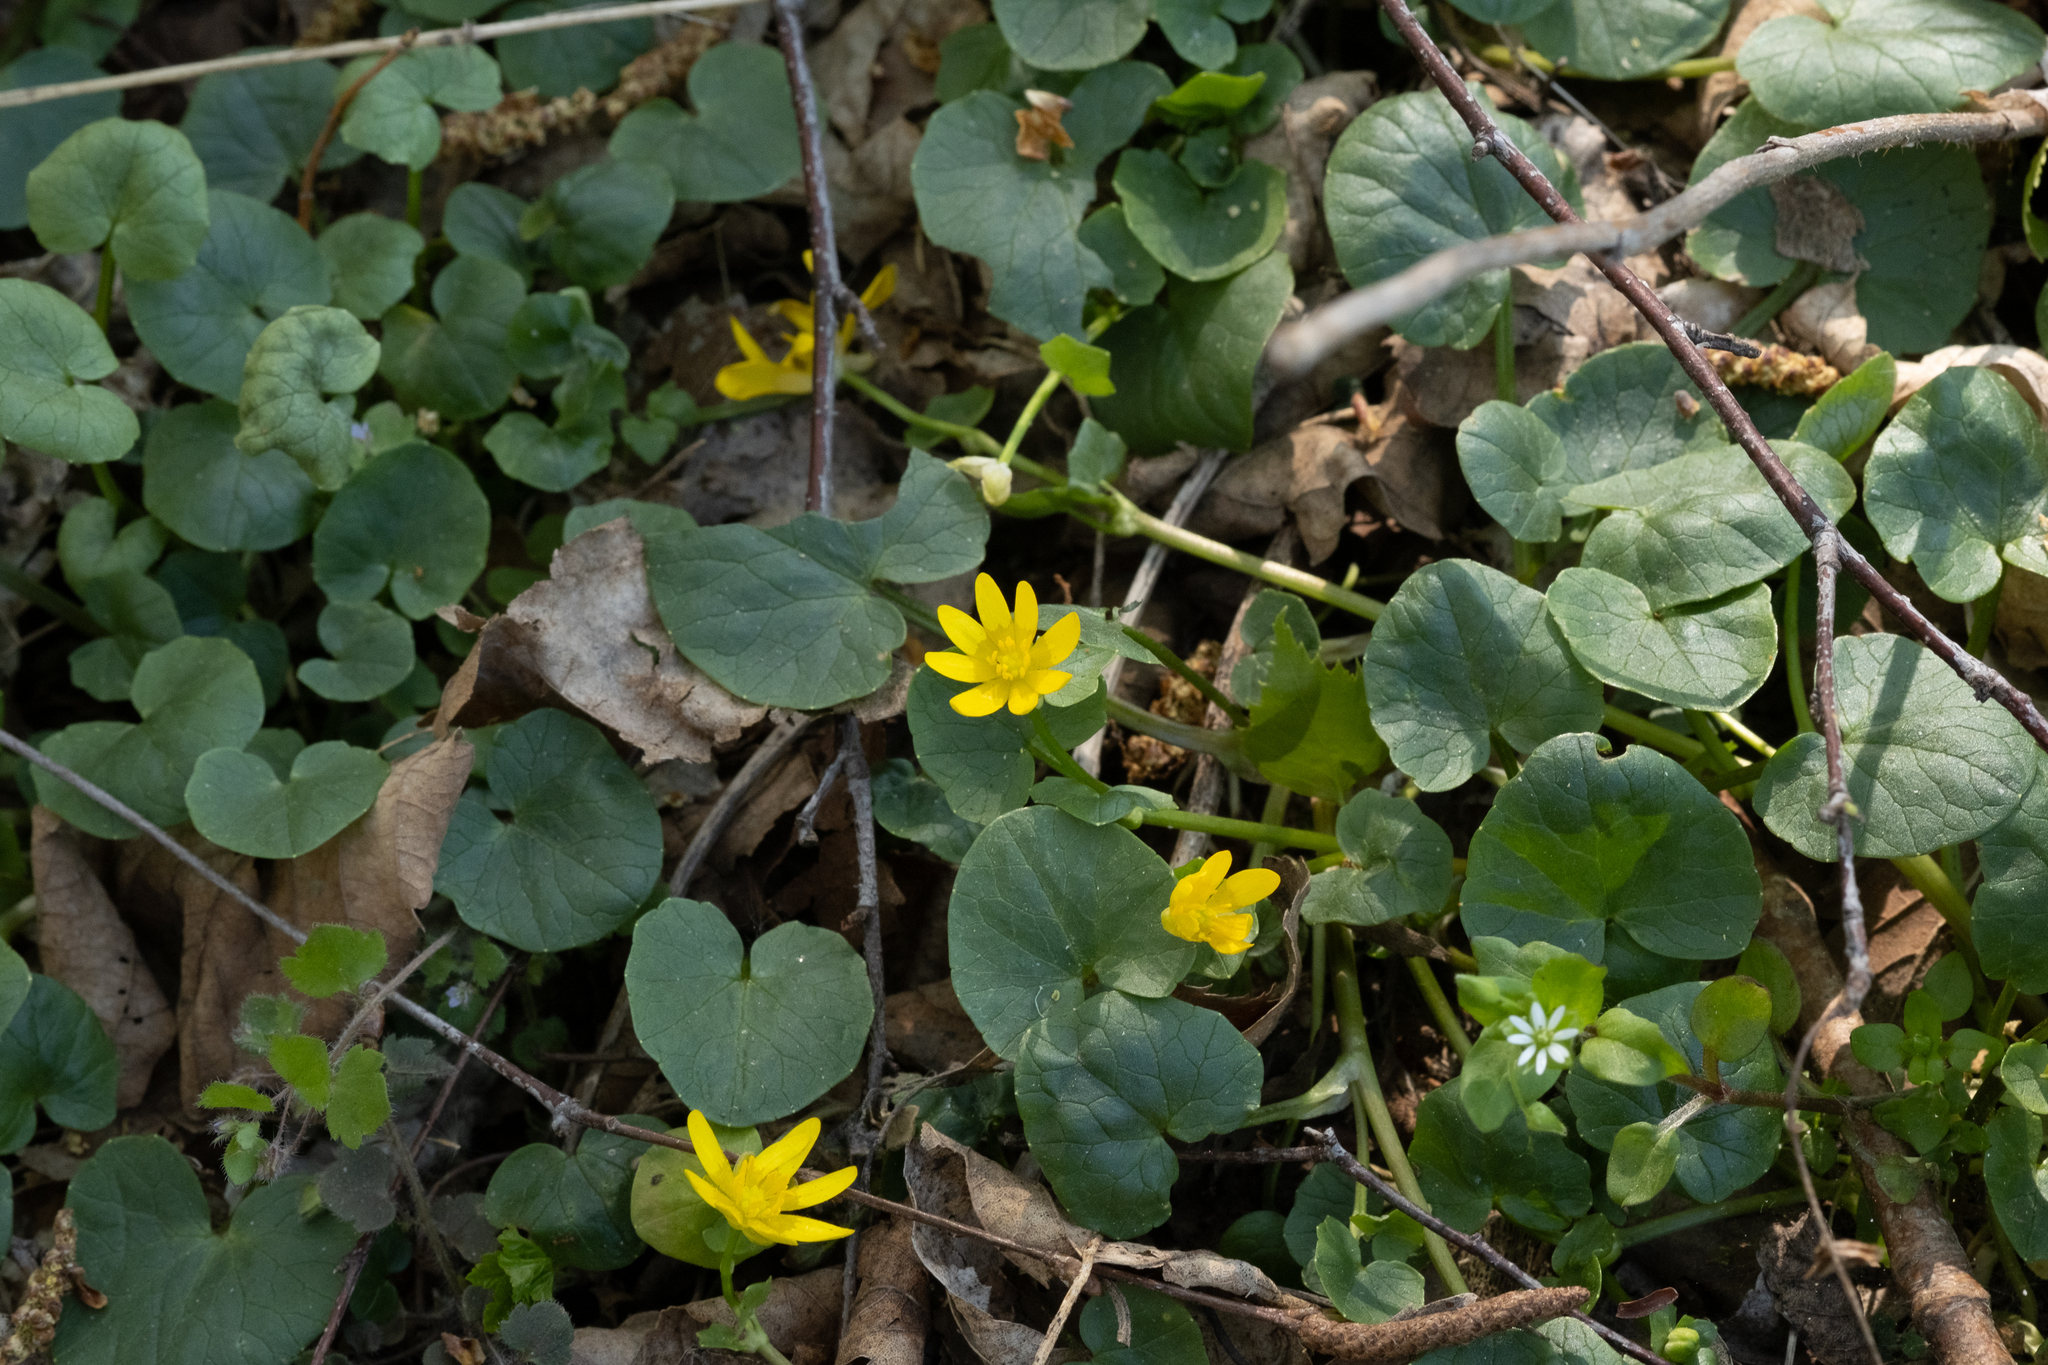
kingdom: Plantae
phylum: Tracheophyta
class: Magnoliopsida
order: Ranunculales
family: Ranunculaceae
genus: Ficaria
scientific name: Ficaria verna
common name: Lesser celandine
